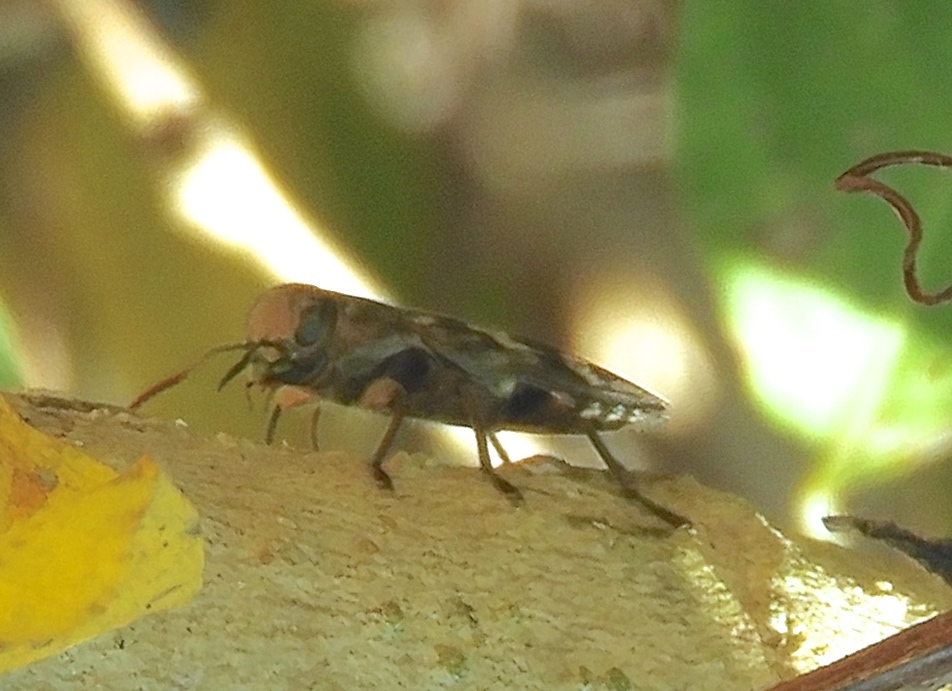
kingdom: Animalia
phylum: Arthropoda
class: Insecta
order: Coleoptera
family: Buprestidae
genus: Chrysobothris
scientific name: Chrysobothris
